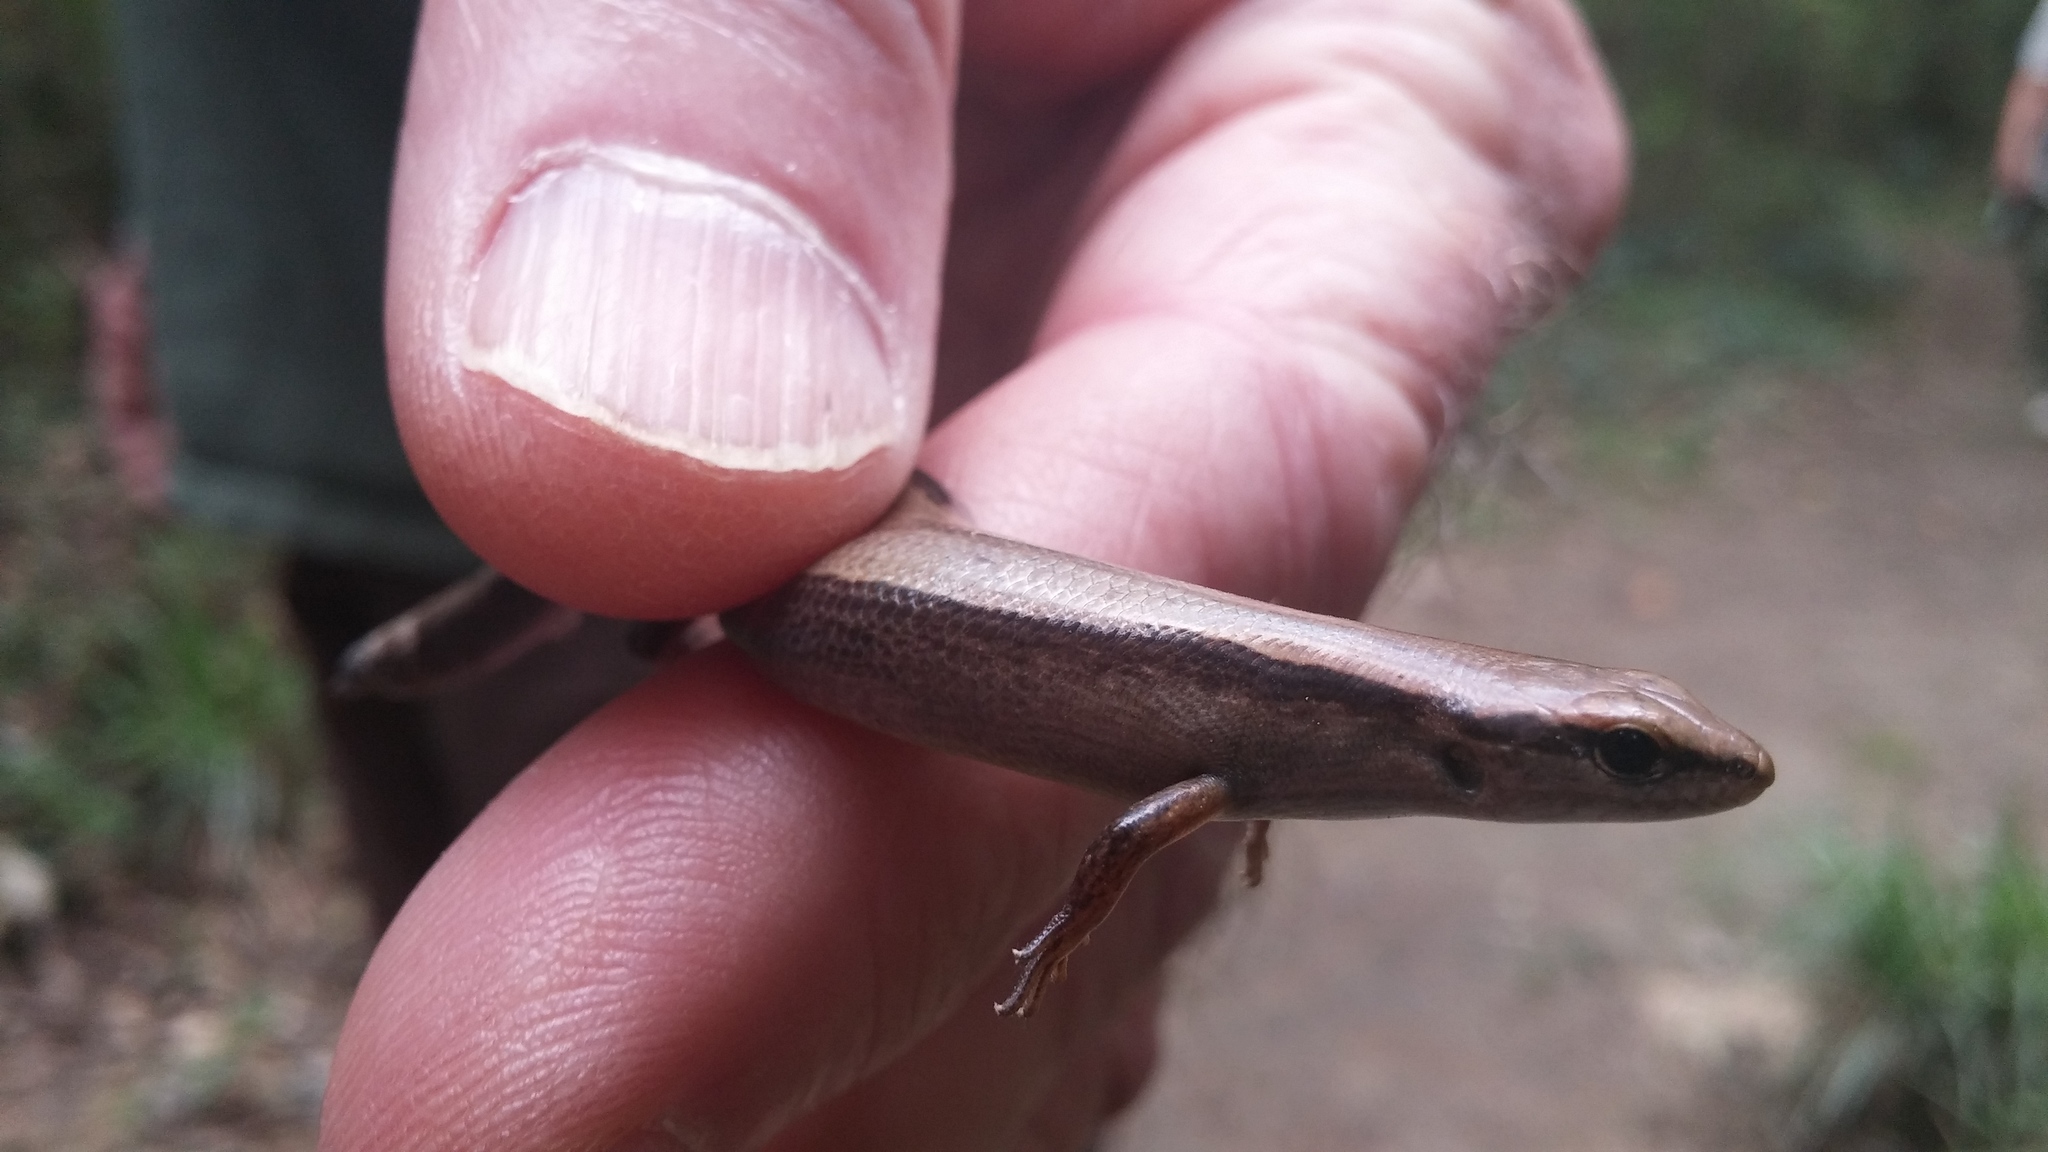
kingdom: Animalia
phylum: Chordata
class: Squamata
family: Scincidae
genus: Scincella
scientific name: Scincella lateralis
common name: Ground skink
